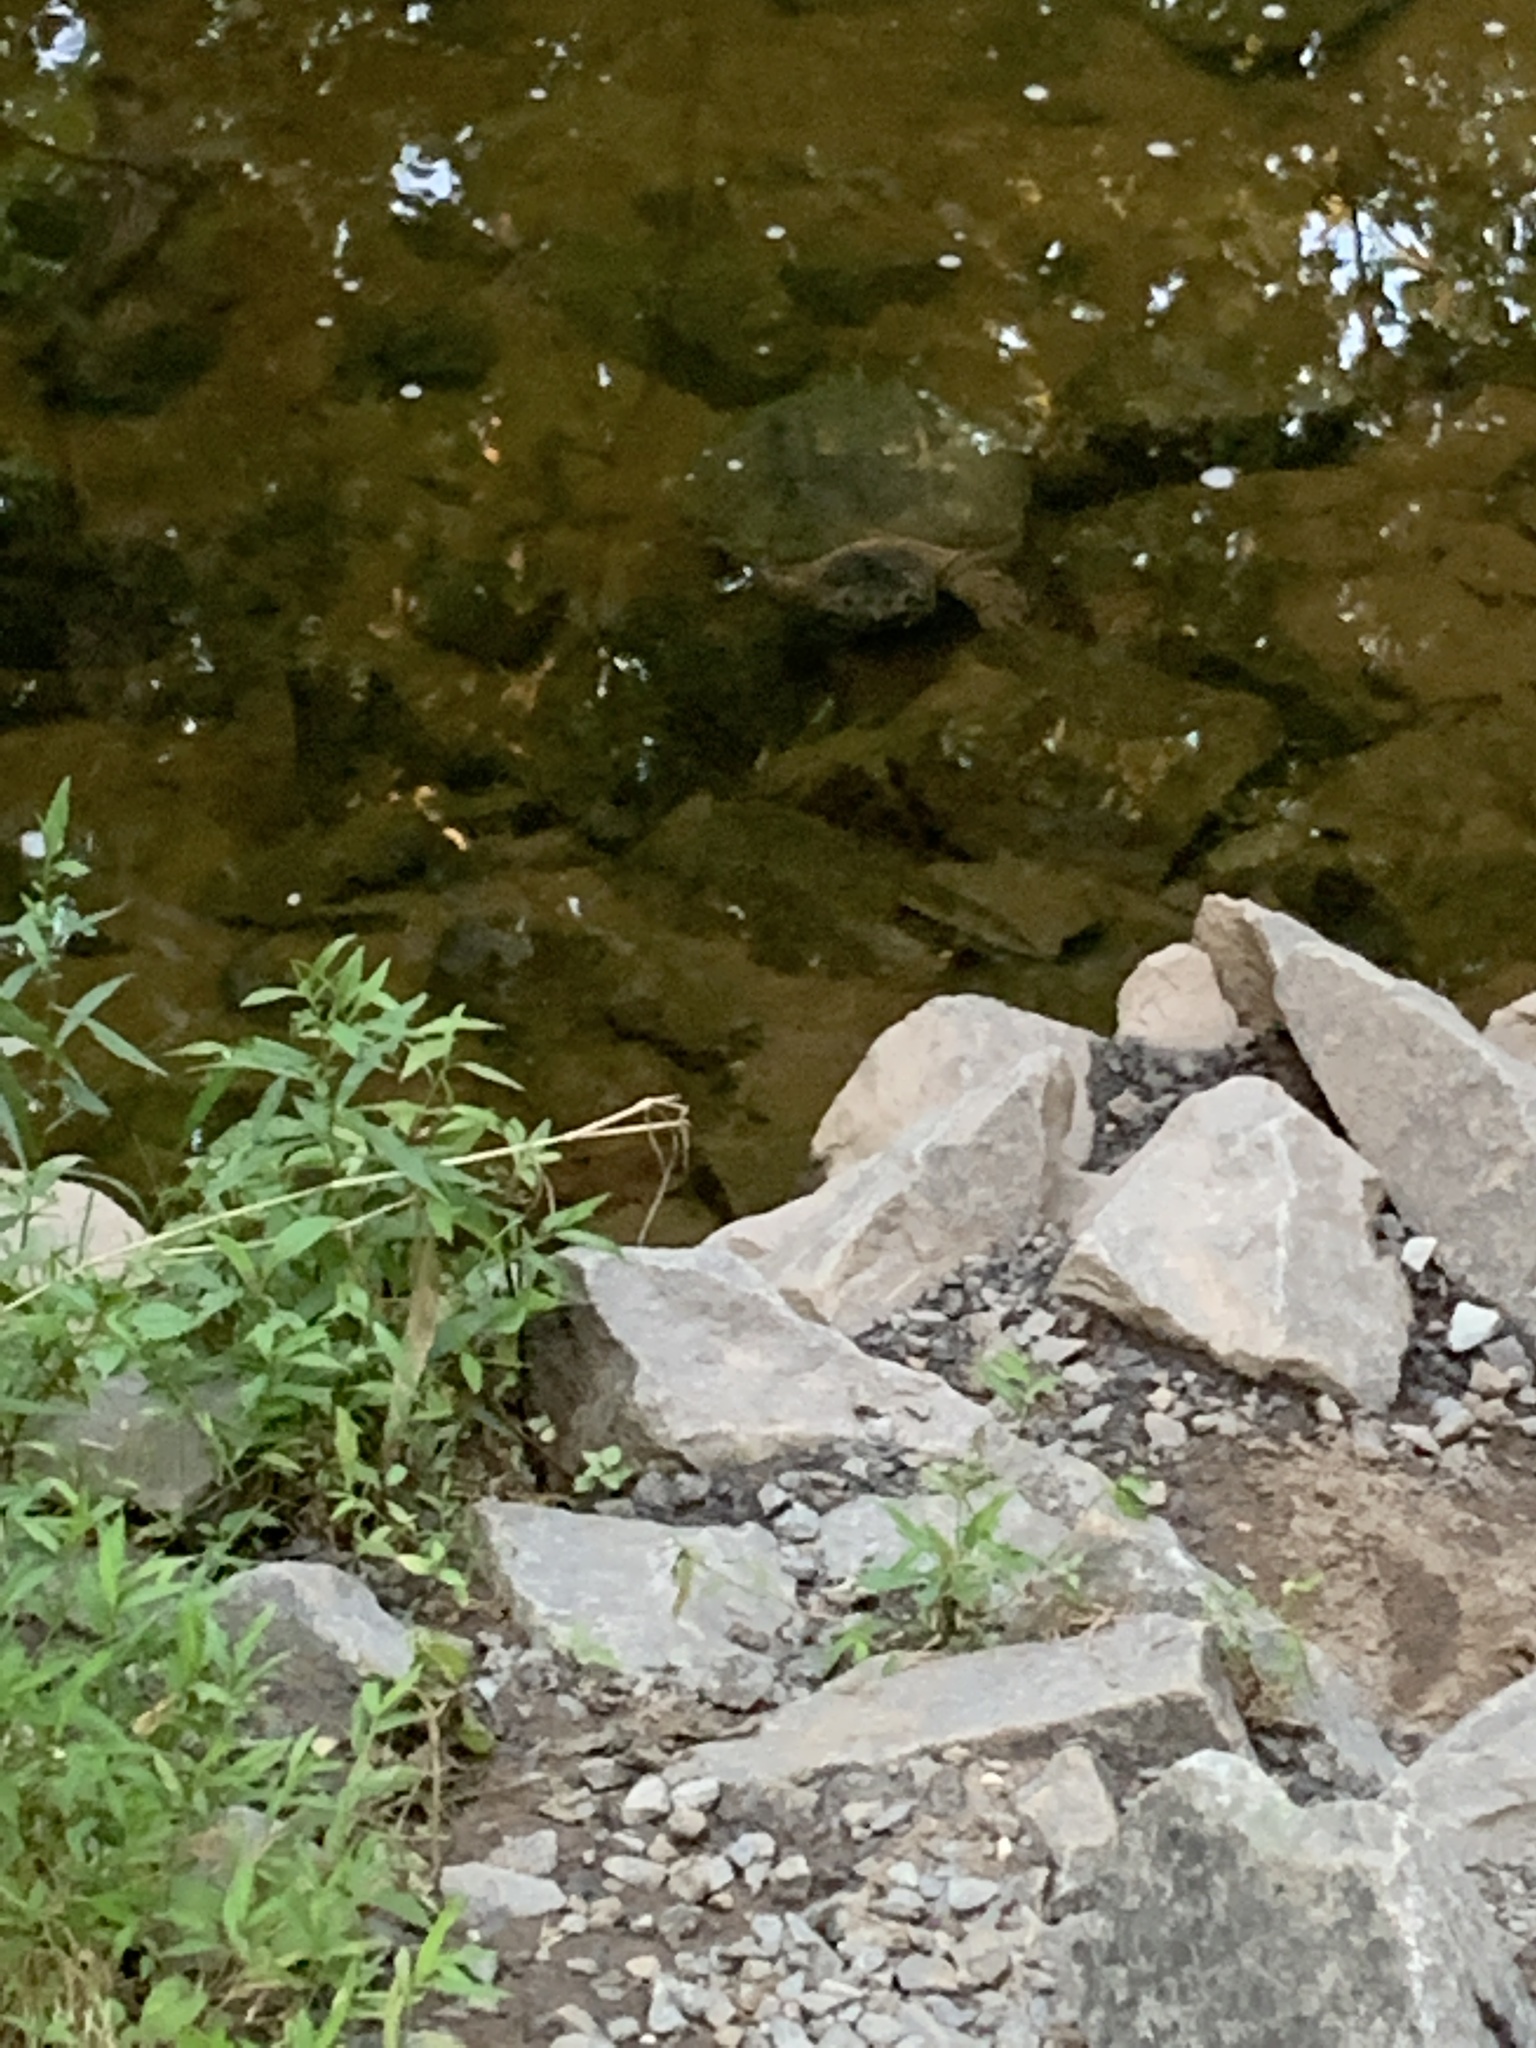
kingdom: Animalia
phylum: Chordata
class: Testudines
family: Chelydridae
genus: Chelydra
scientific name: Chelydra serpentina
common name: Common snapping turtle
